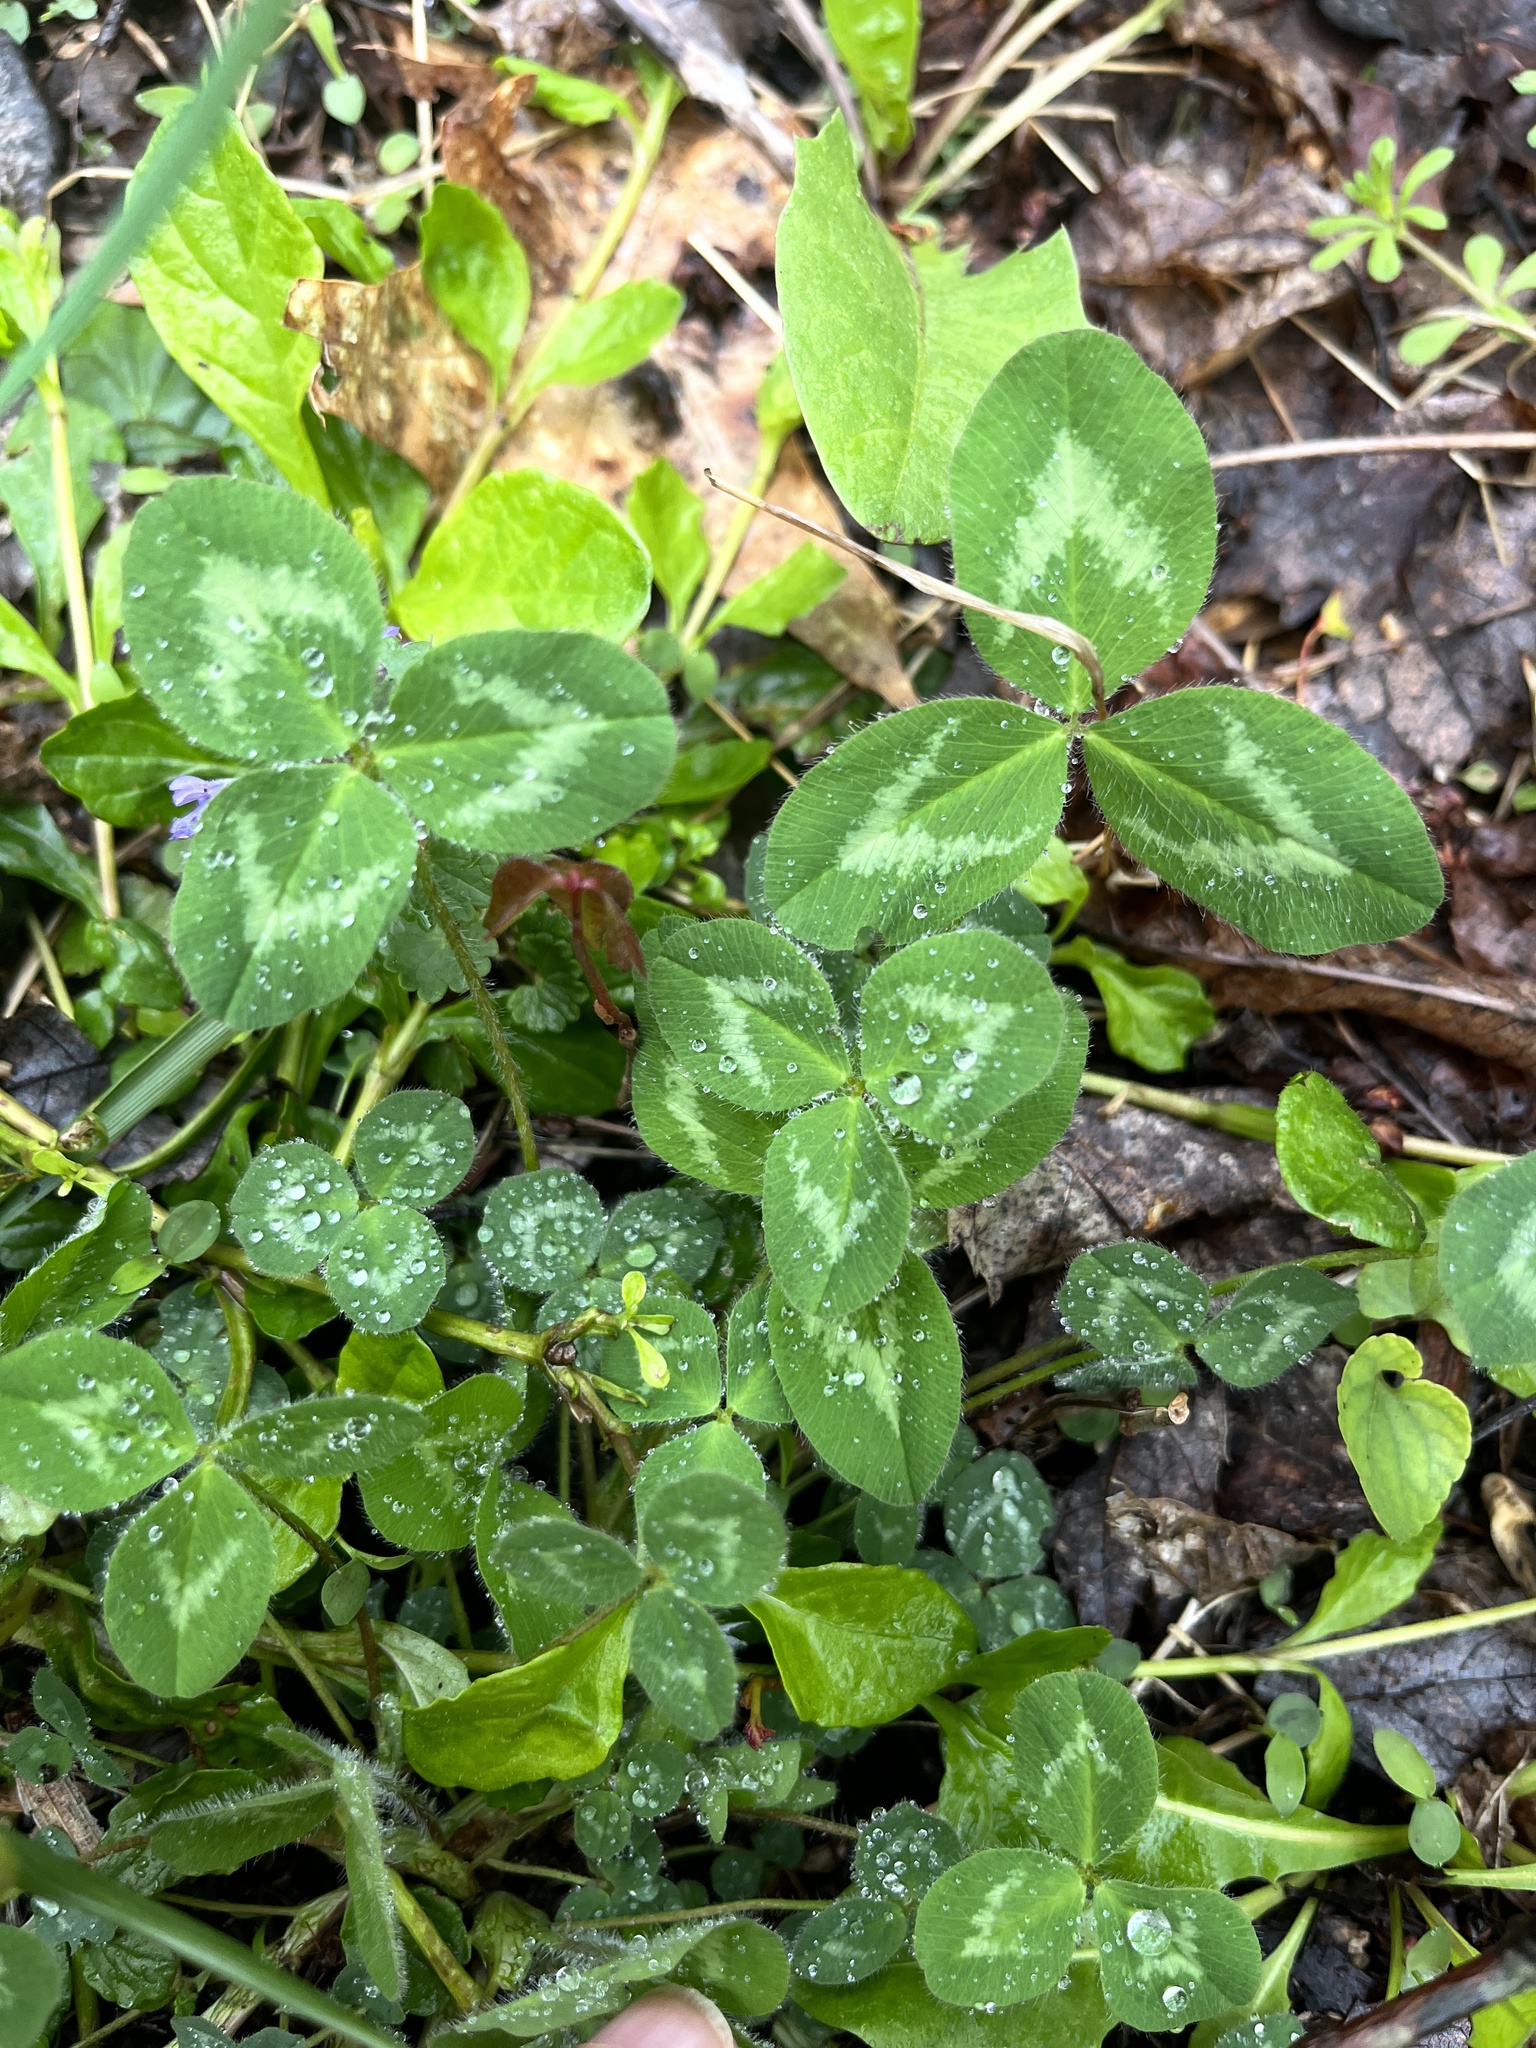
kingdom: Plantae
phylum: Tracheophyta
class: Magnoliopsida
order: Fabales
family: Fabaceae
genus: Trifolium
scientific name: Trifolium pratense
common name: Red clover
